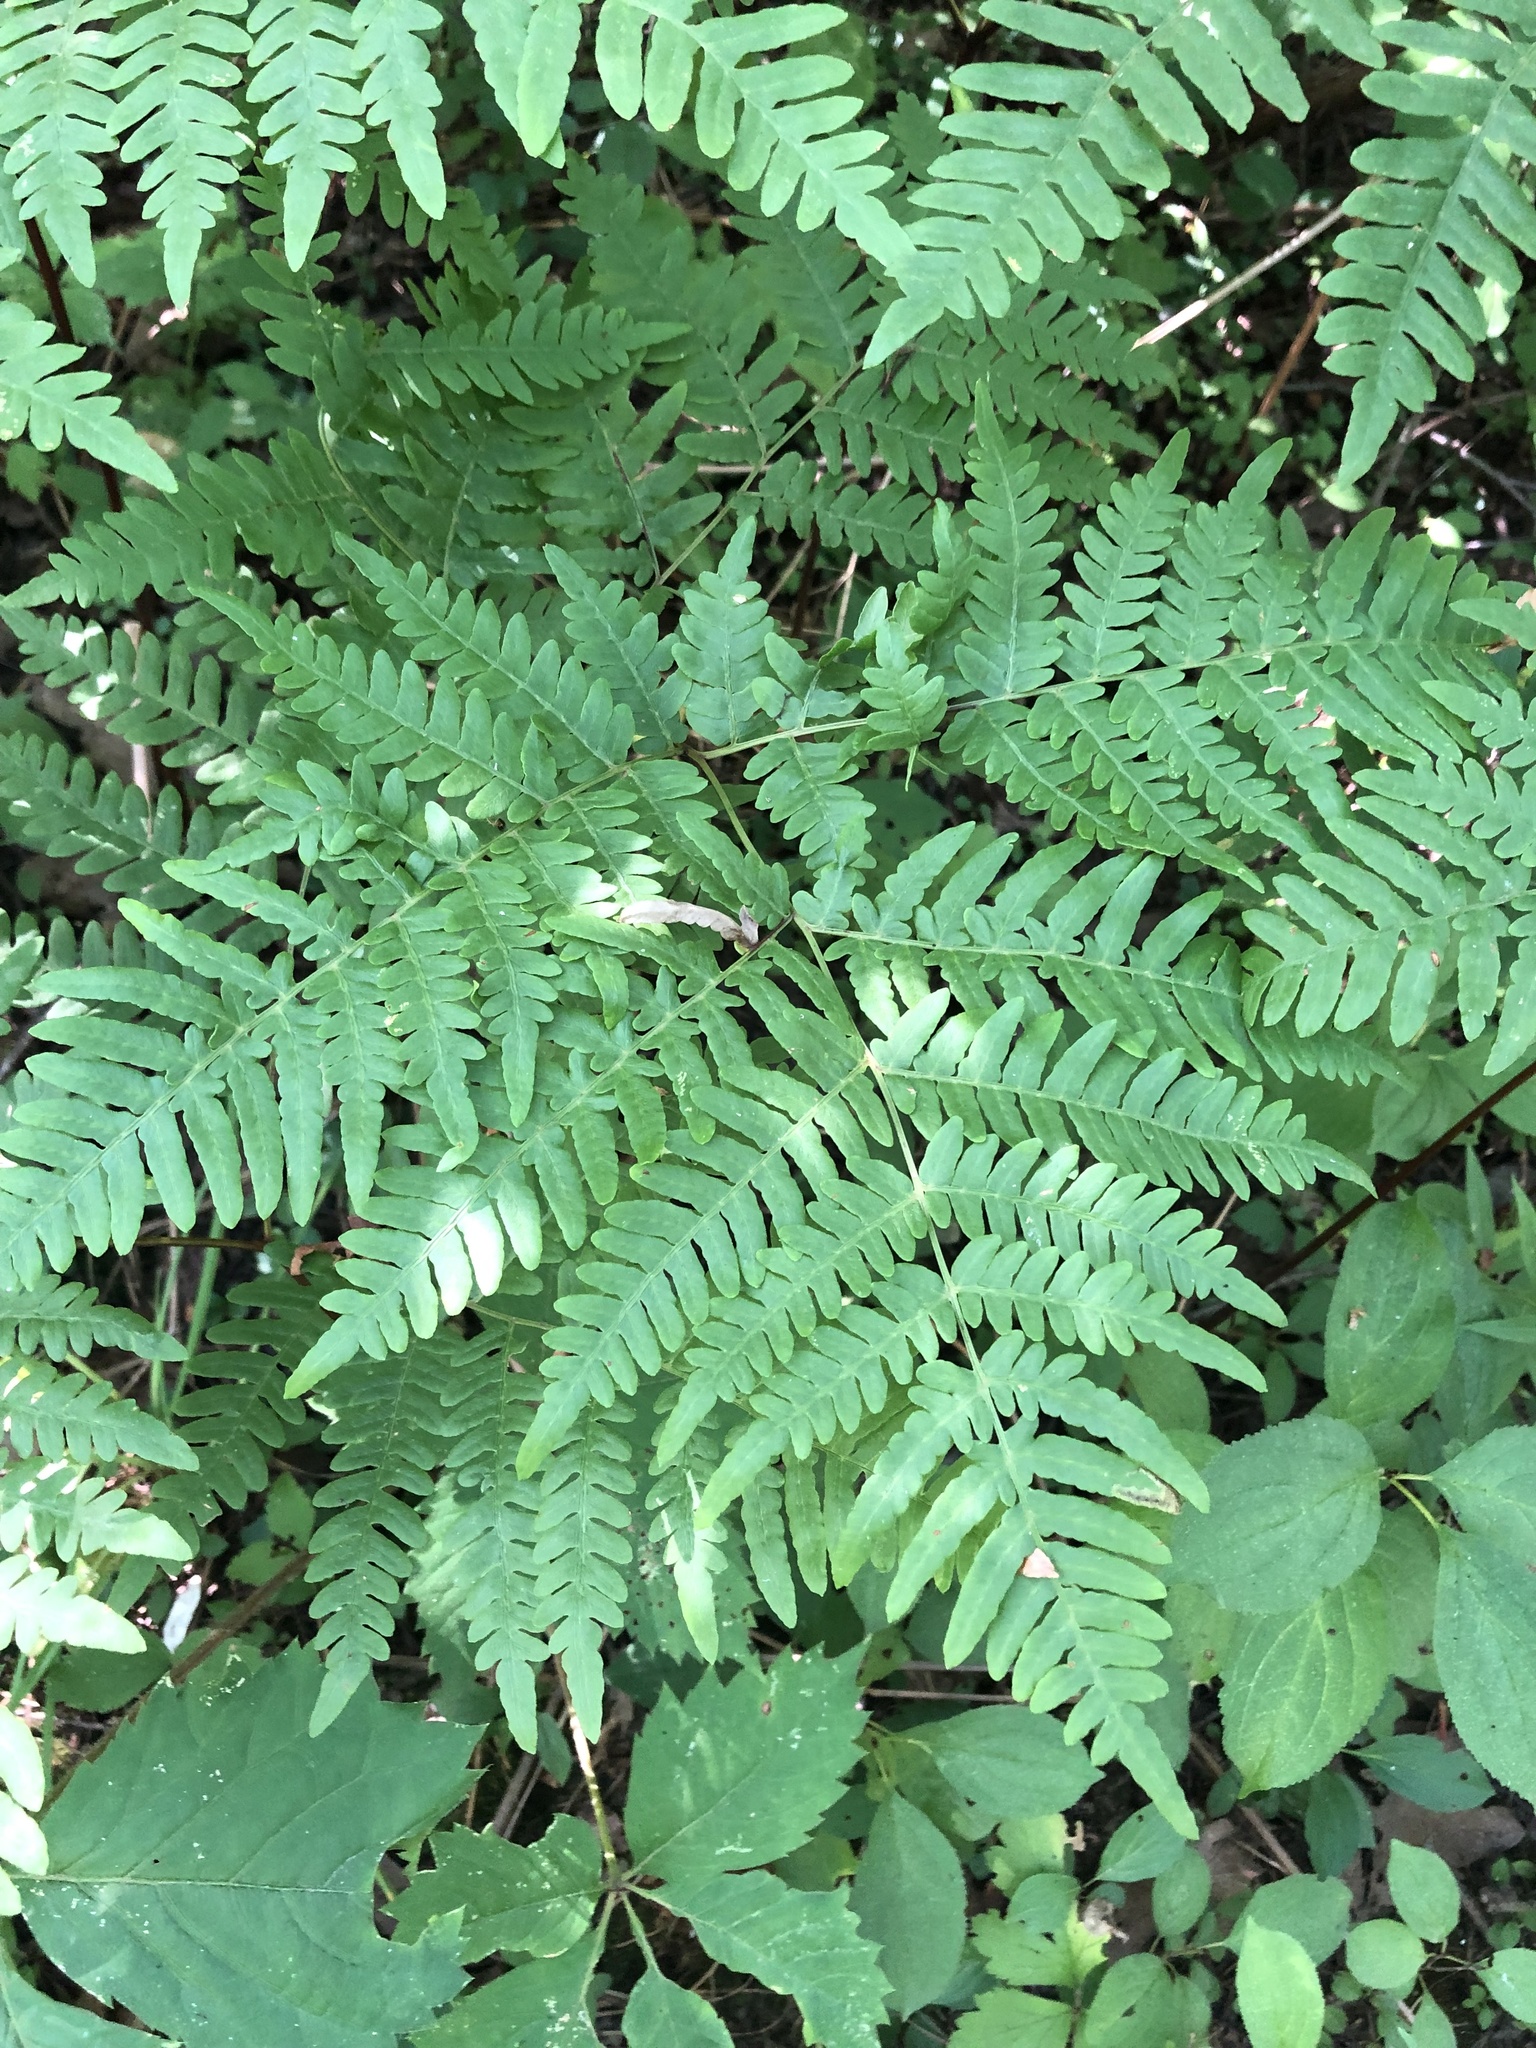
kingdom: Plantae
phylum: Tracheophyta
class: Polypodiopsida
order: Polypodiales
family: Dennstaedtiaceae
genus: Pteridium
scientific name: Pteridium aquilinum
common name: Bracken
